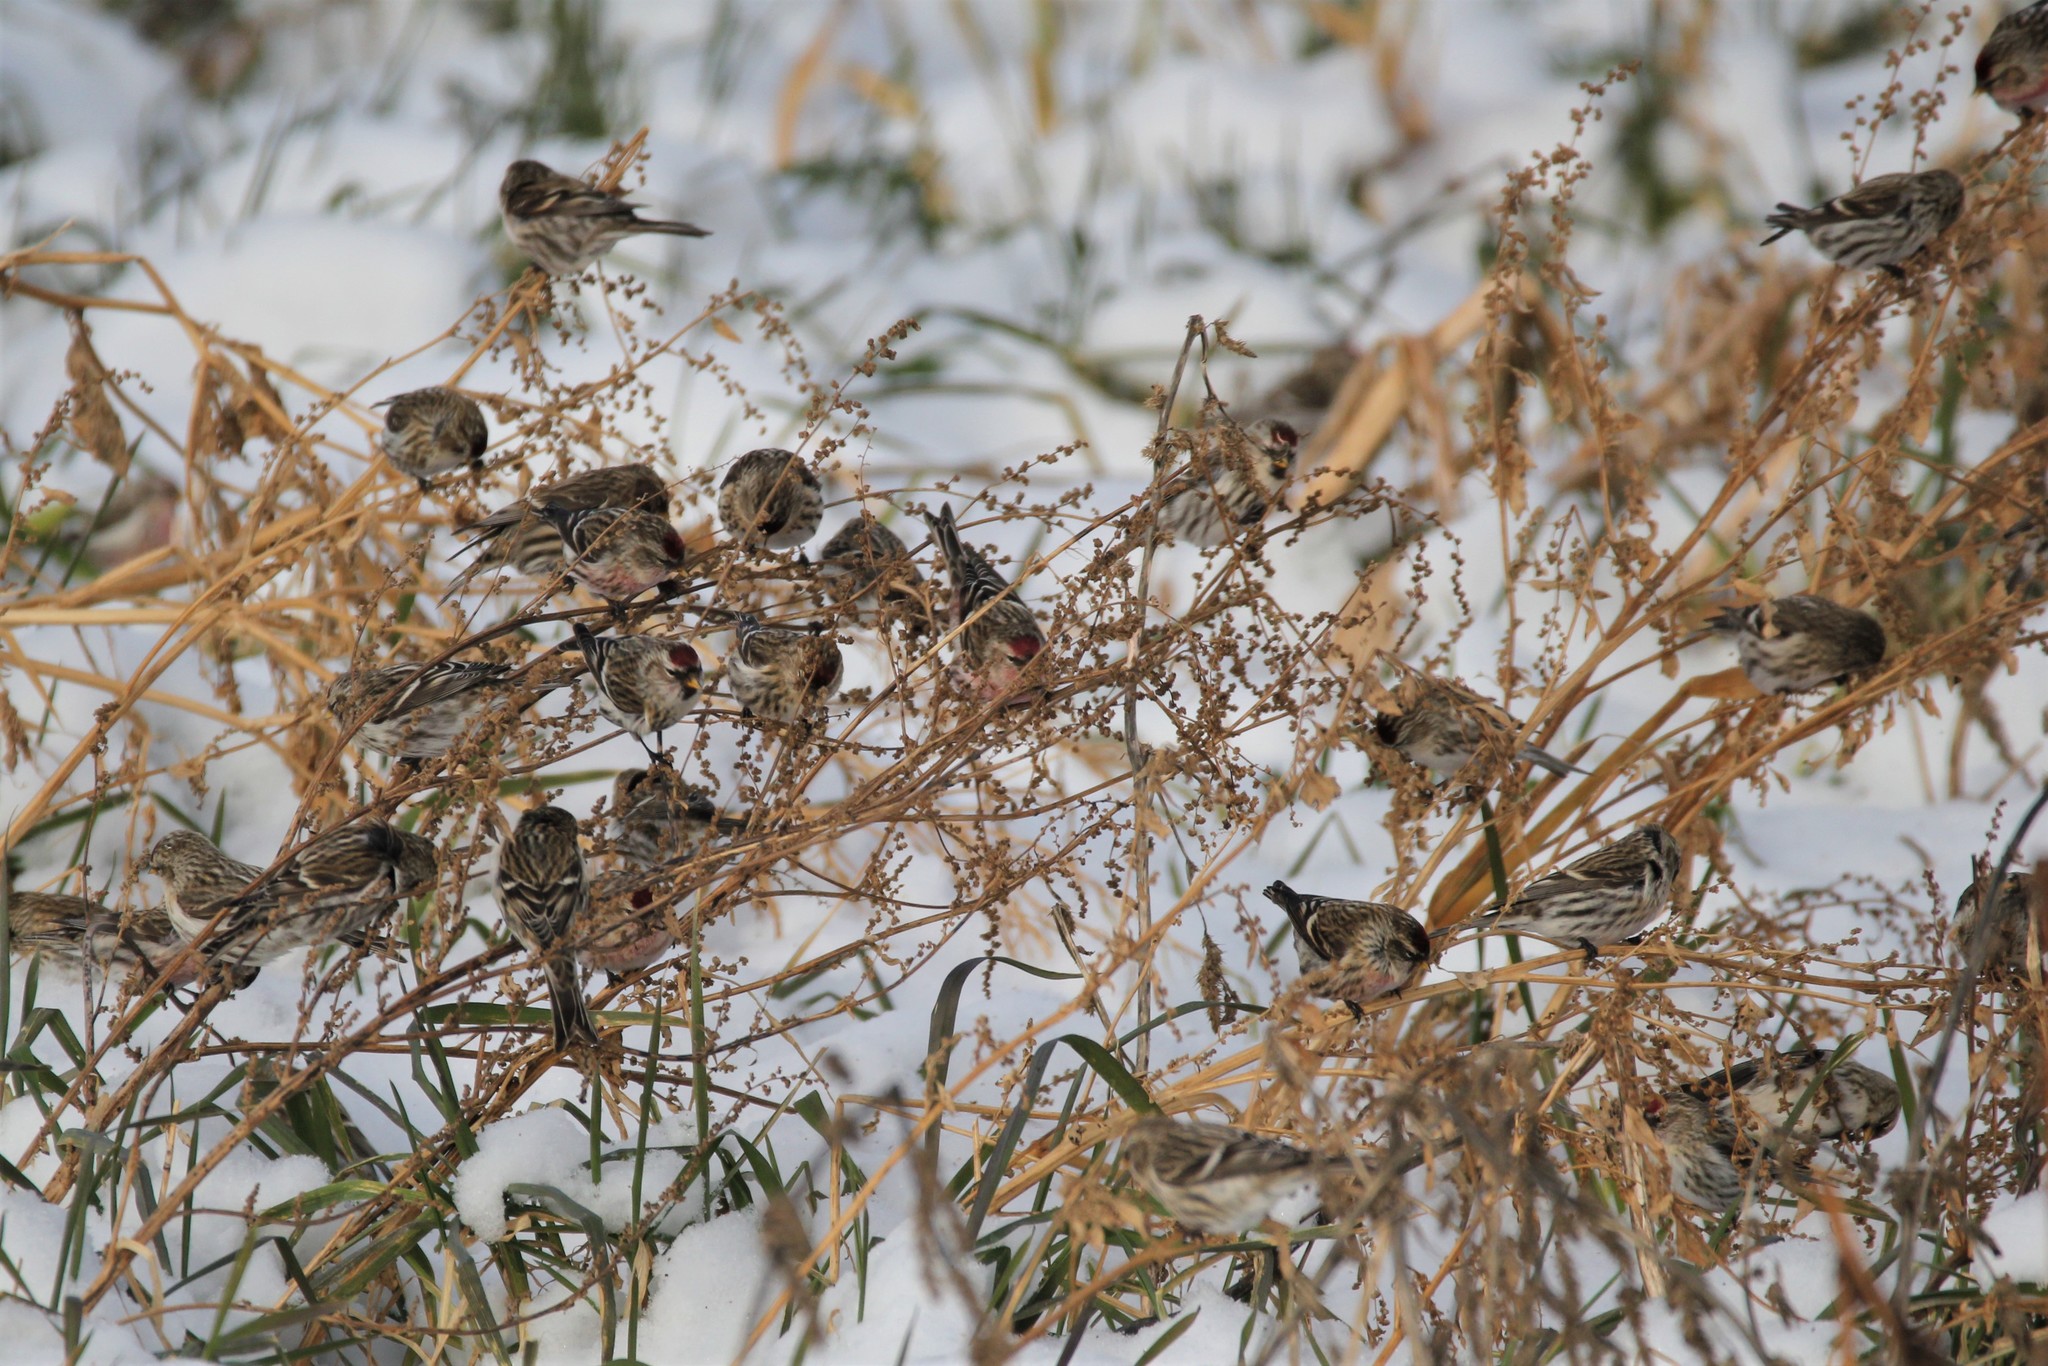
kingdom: Animalia
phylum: Chordata
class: Aves
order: Passeriformes
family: Fringillidae
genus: Acanthis
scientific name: Acanthis flammea
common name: Common redpoll
